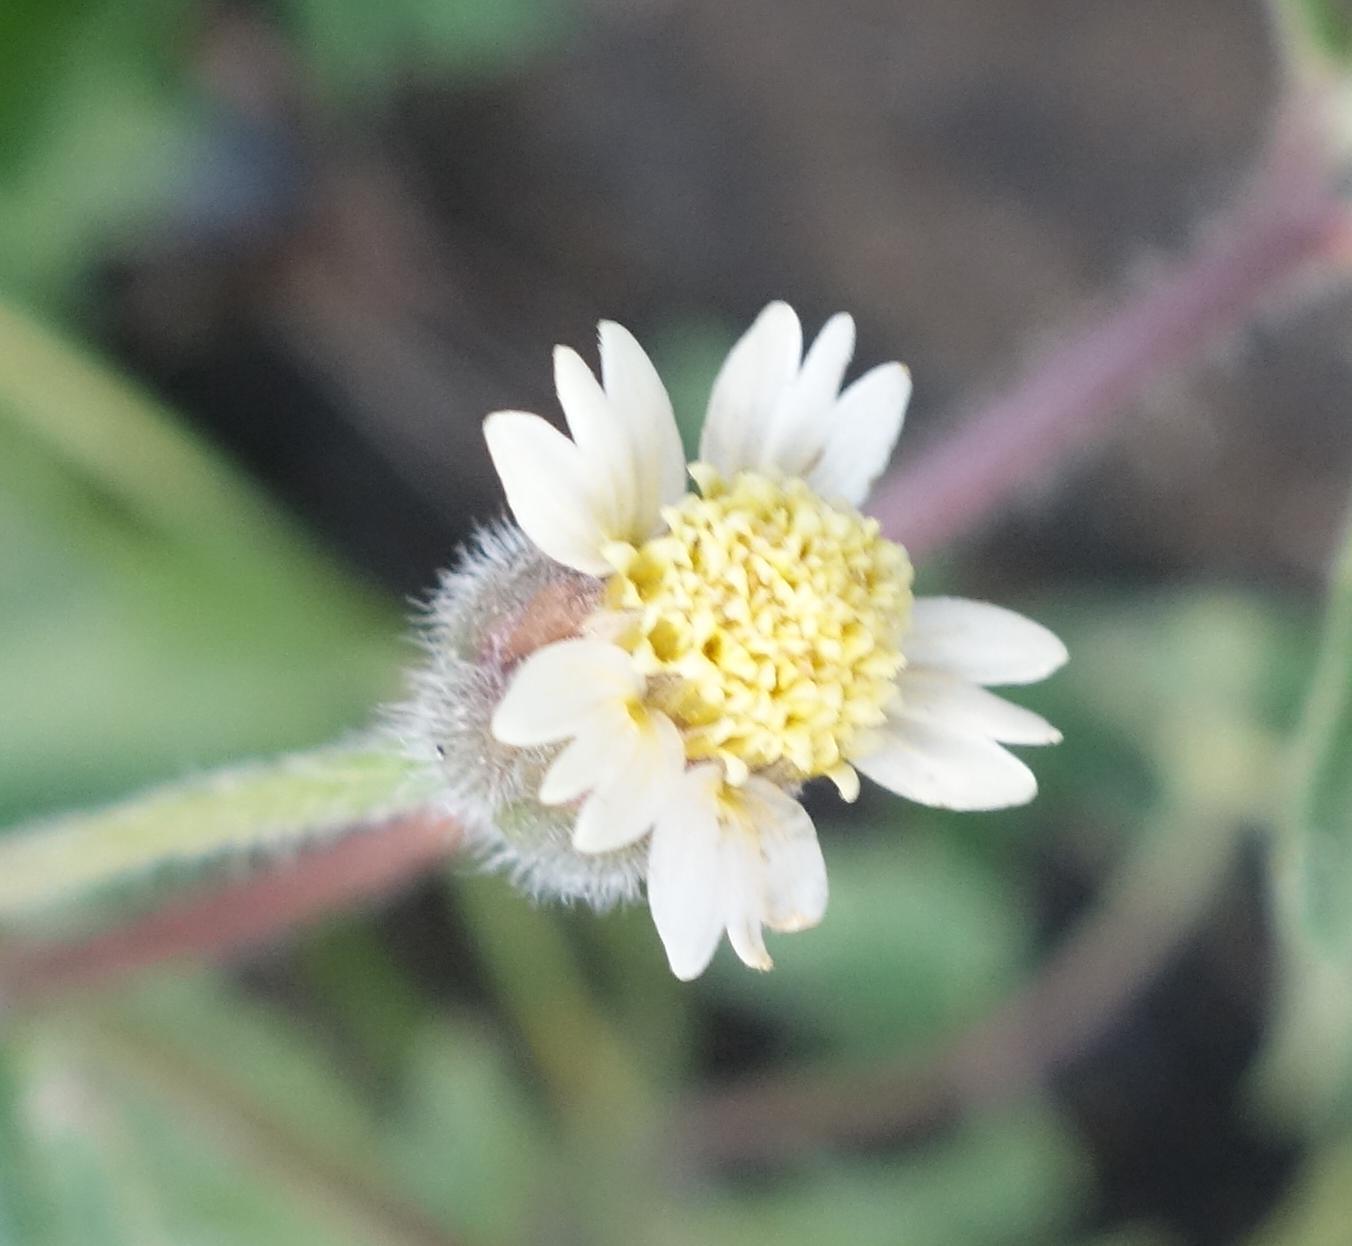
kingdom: Plantae
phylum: Tracheophyta
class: Magnoliopsida
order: Asterales
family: Asteraceae
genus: Tridax
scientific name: Tridax procumbens
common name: Coatbuttons
